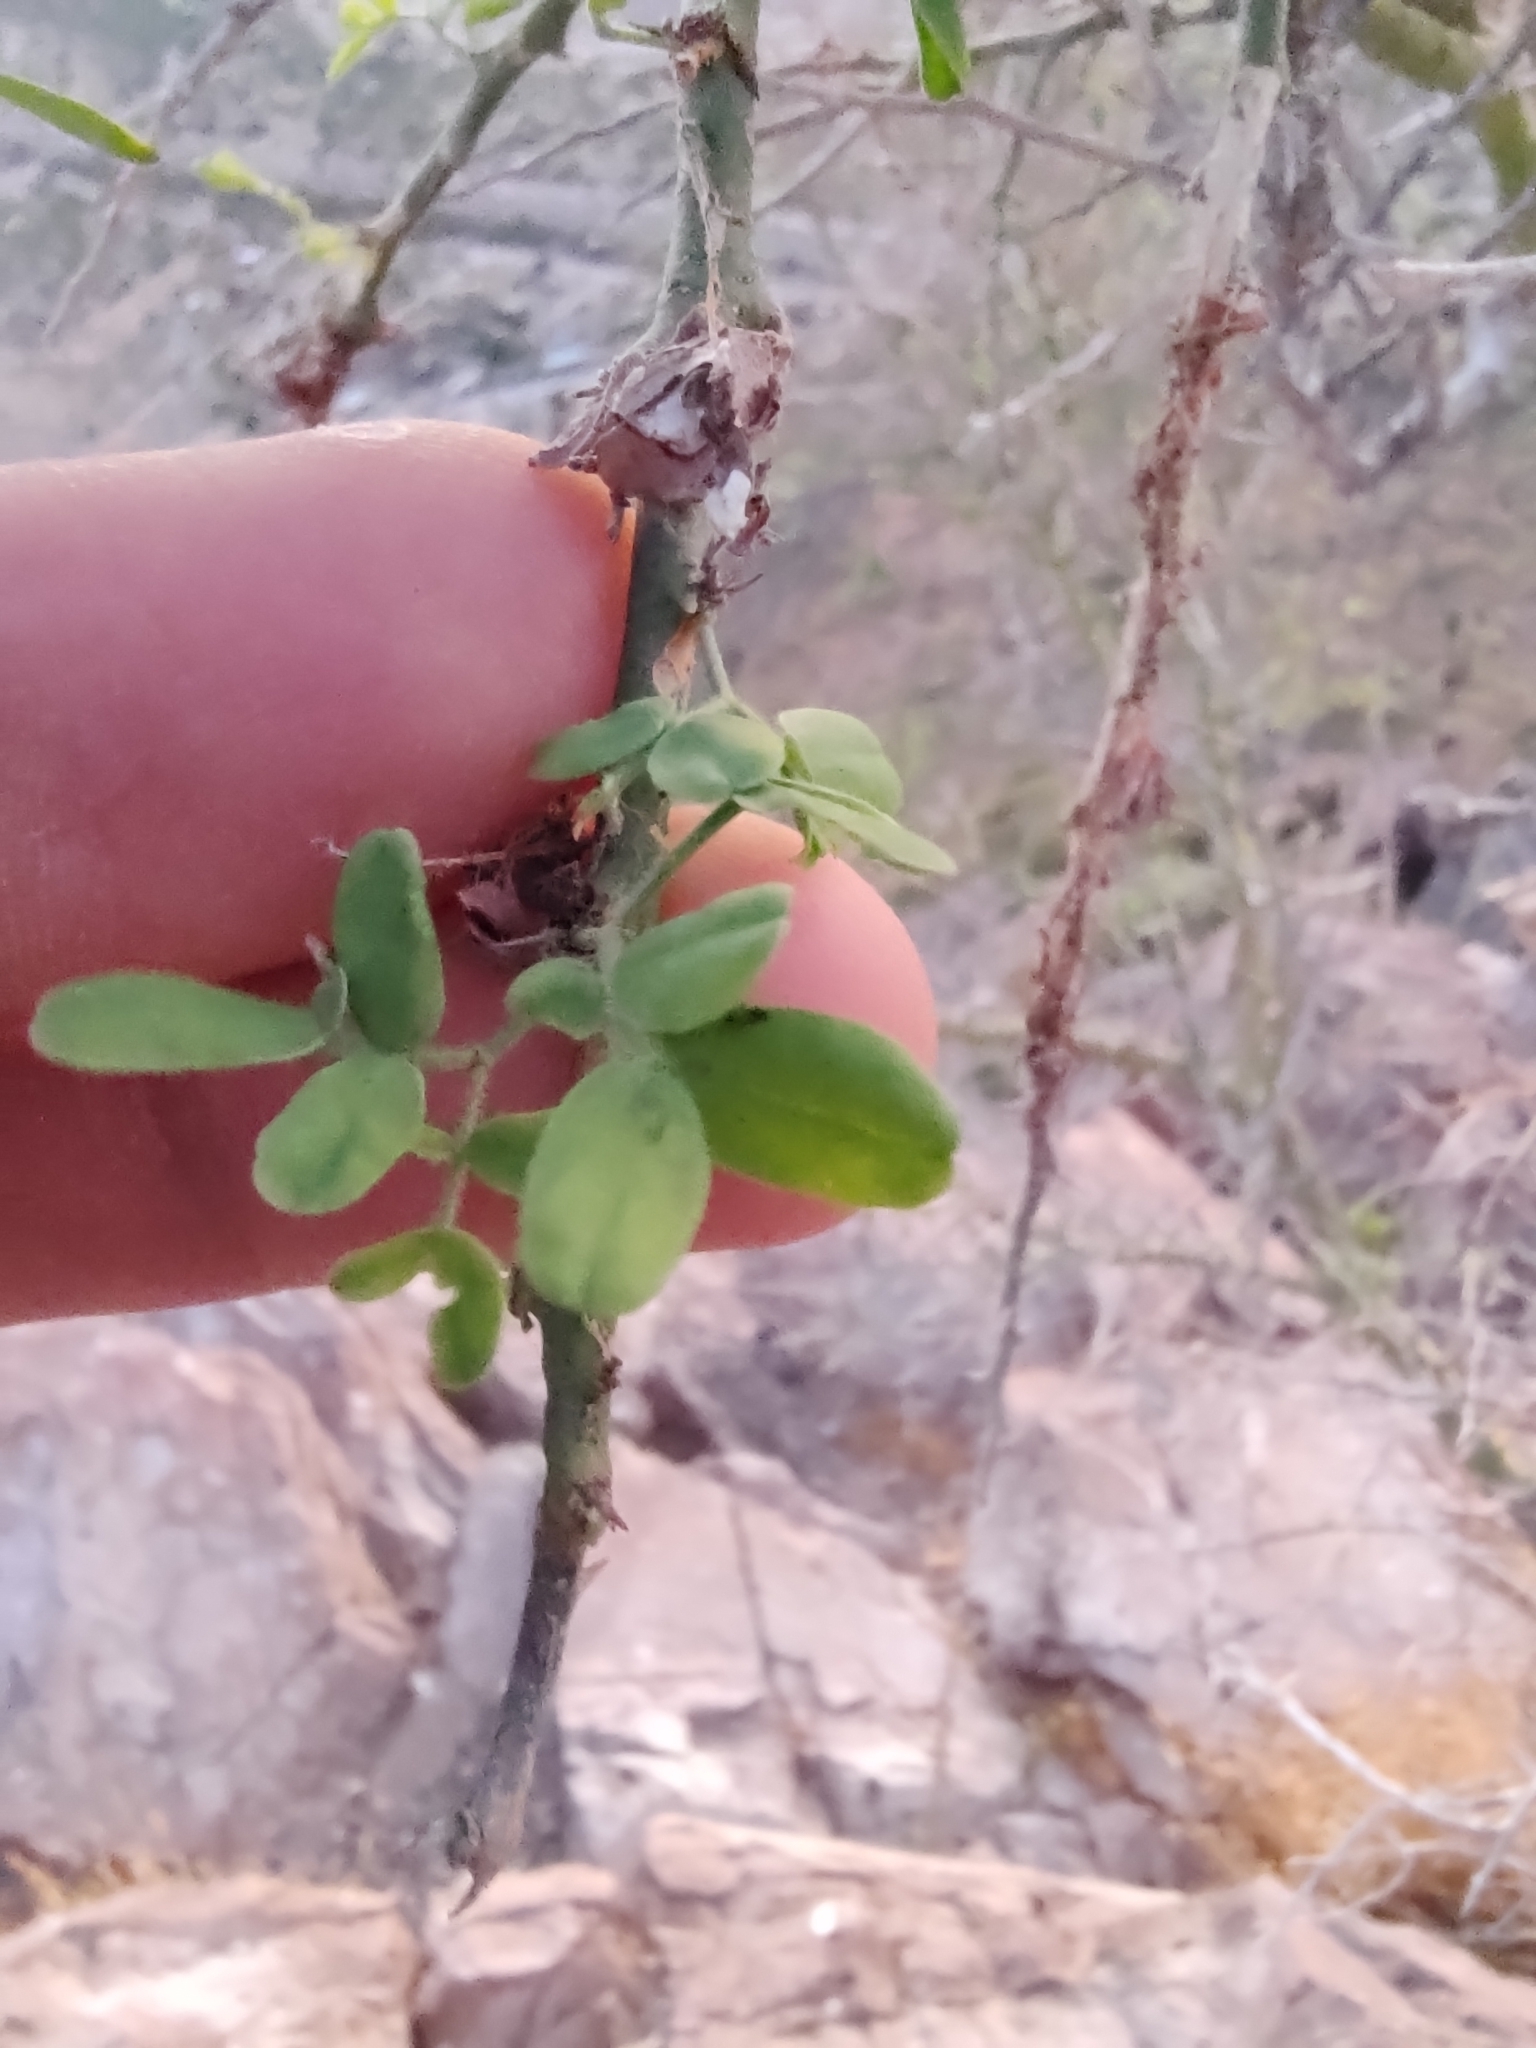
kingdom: Plantae
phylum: Tracheophyta
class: Magnoliopsida
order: Fabales
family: Fabaceae
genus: Parkinsonia
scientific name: Parkinsonia florida
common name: Blue paloverde
